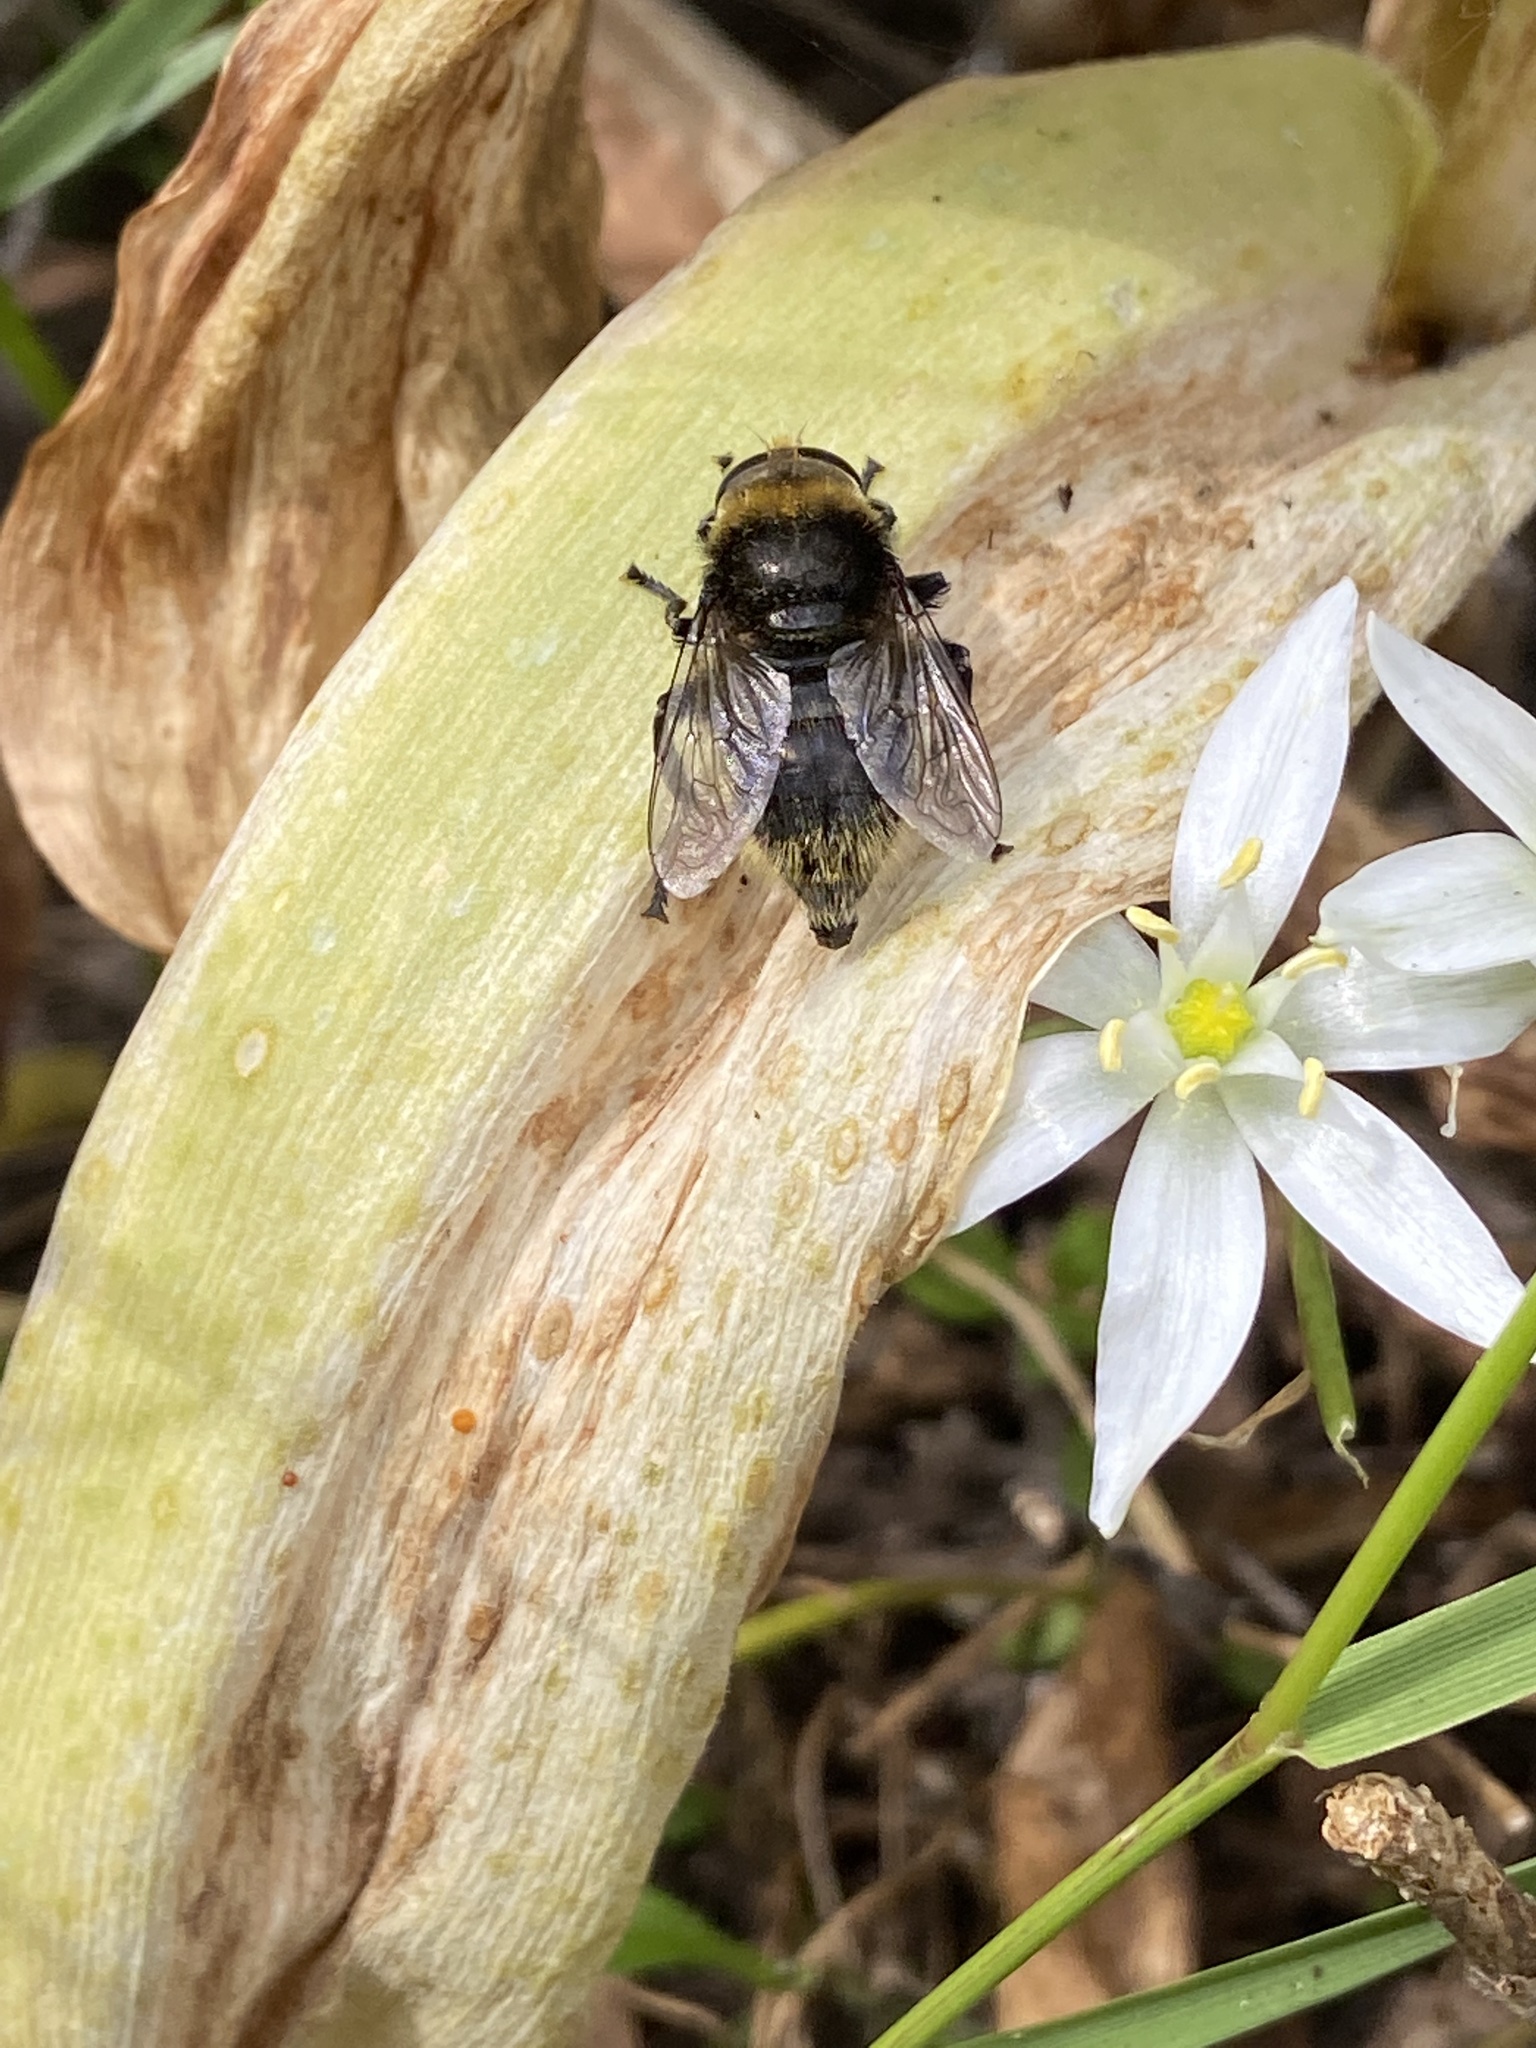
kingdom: Animalia
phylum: Arthropoda
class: Insecta
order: Diptera
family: Syrphidae
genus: Merodon
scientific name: Merodon equestris
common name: Greater bulb-fly
